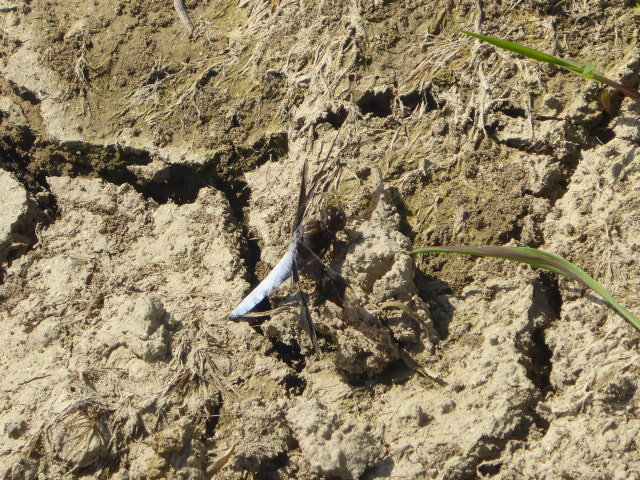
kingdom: Animalia
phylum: Arthropoda
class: Insecta
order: Odonata
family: Libellulidae
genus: Plathemis
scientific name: Plathemis lydia
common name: Common whitetail
